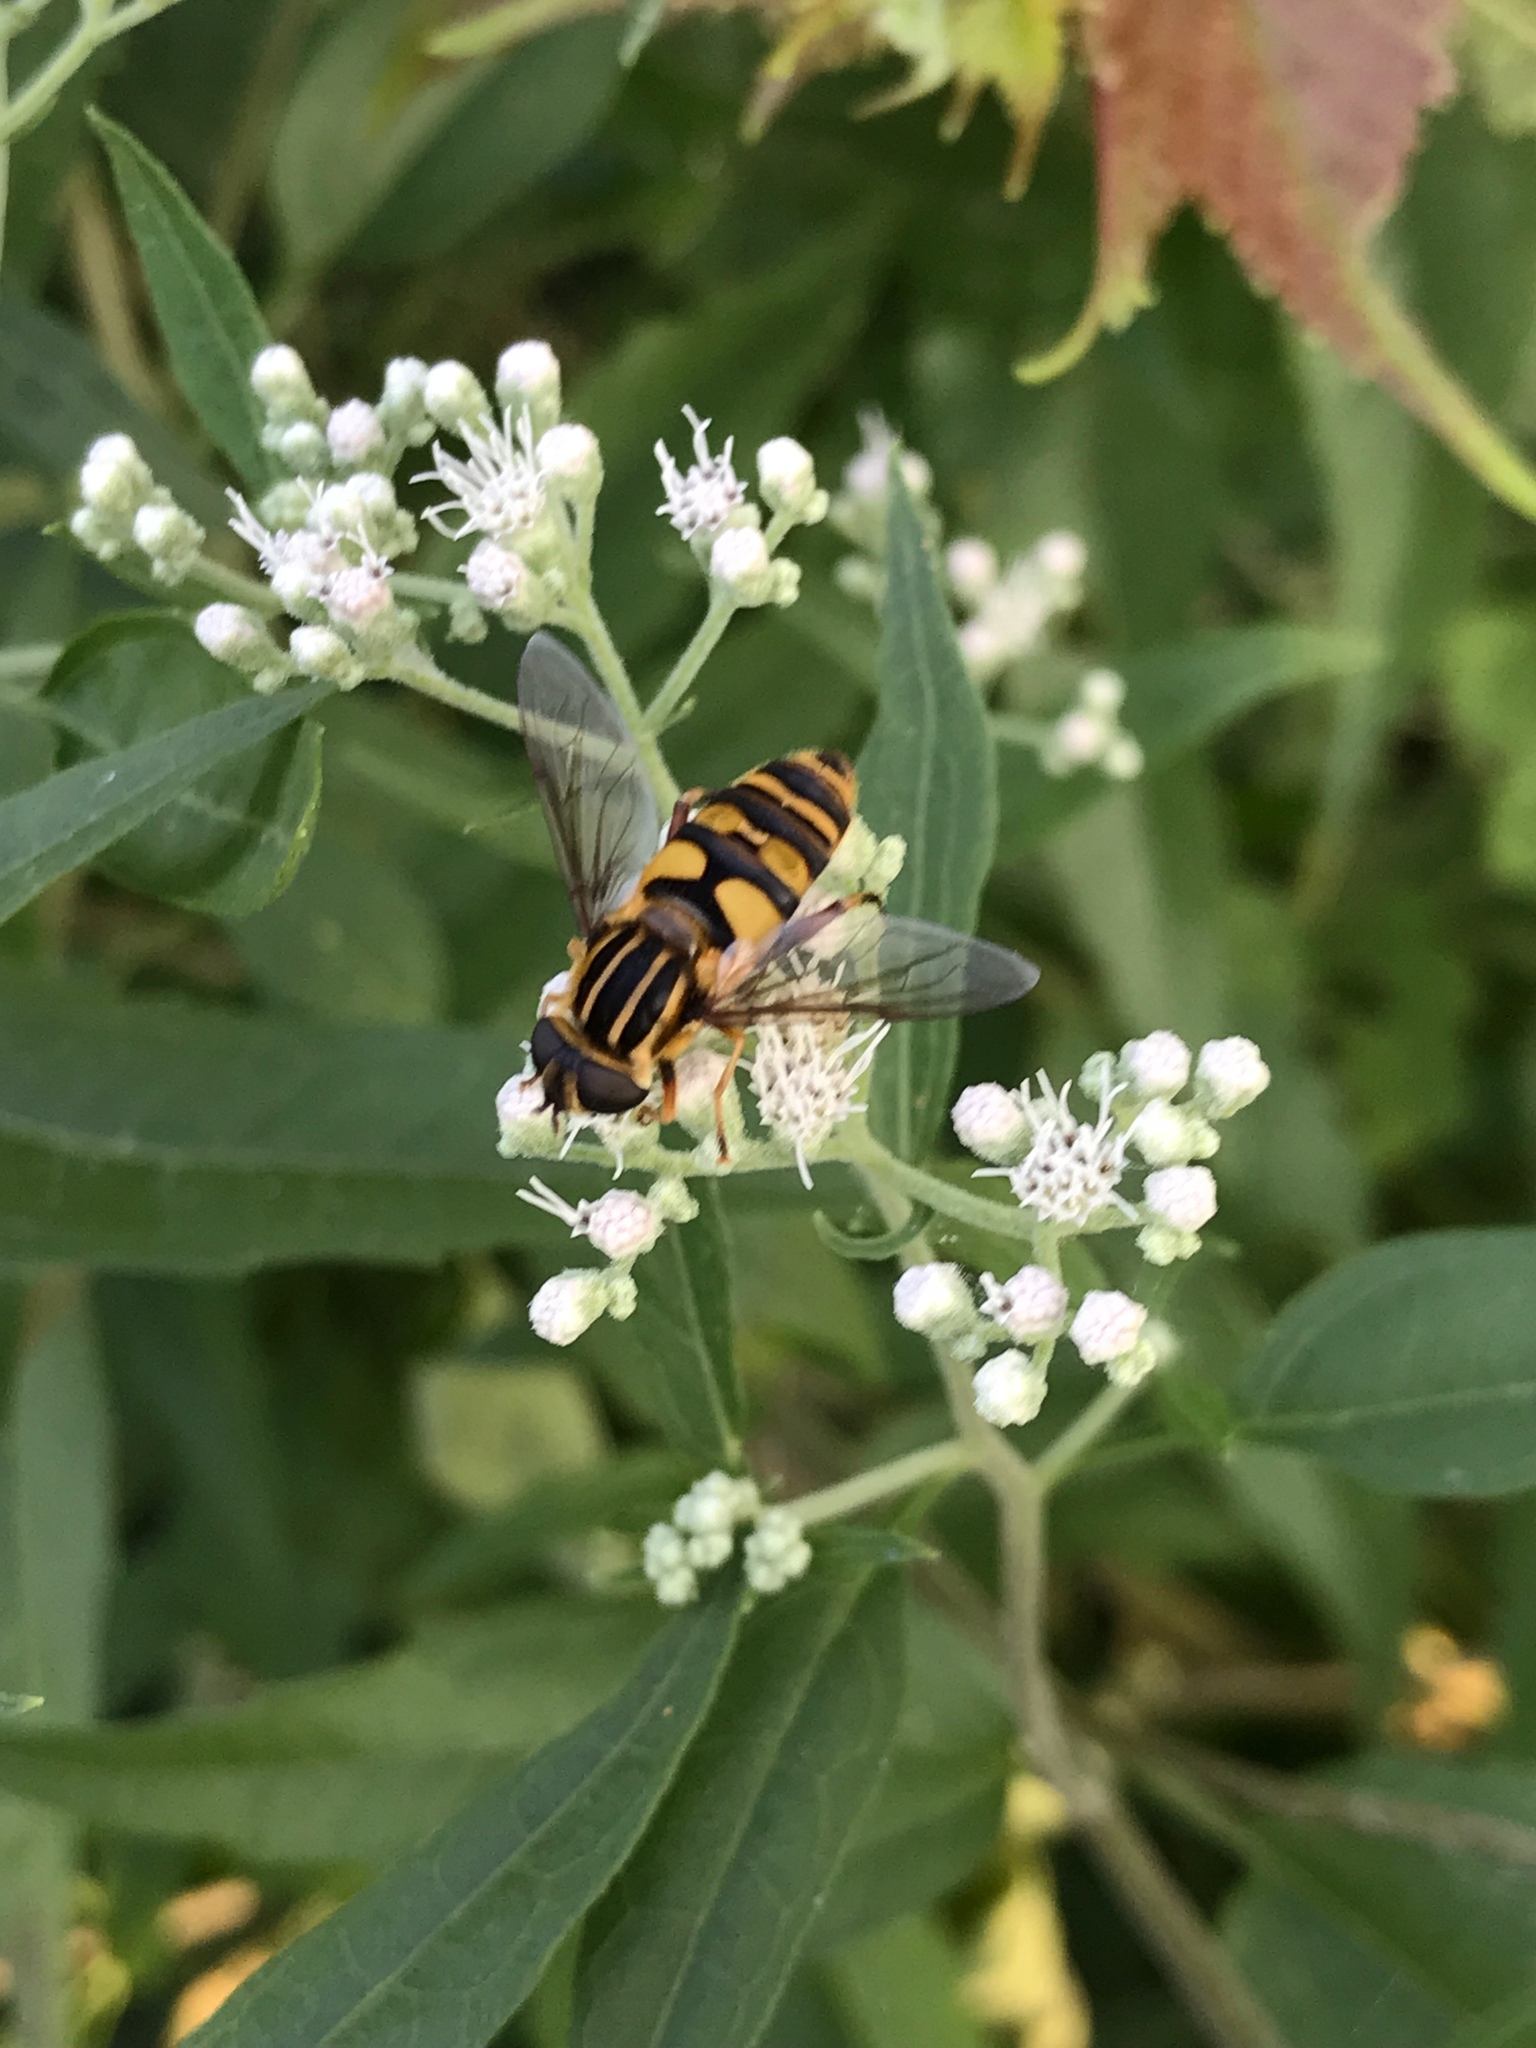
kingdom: Animalia
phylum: Arthropoda
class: Insecta
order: Diptera
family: Syrphidae
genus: Helophilus
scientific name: Helophilus fasciatus
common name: Narrow-headed marsh fly
